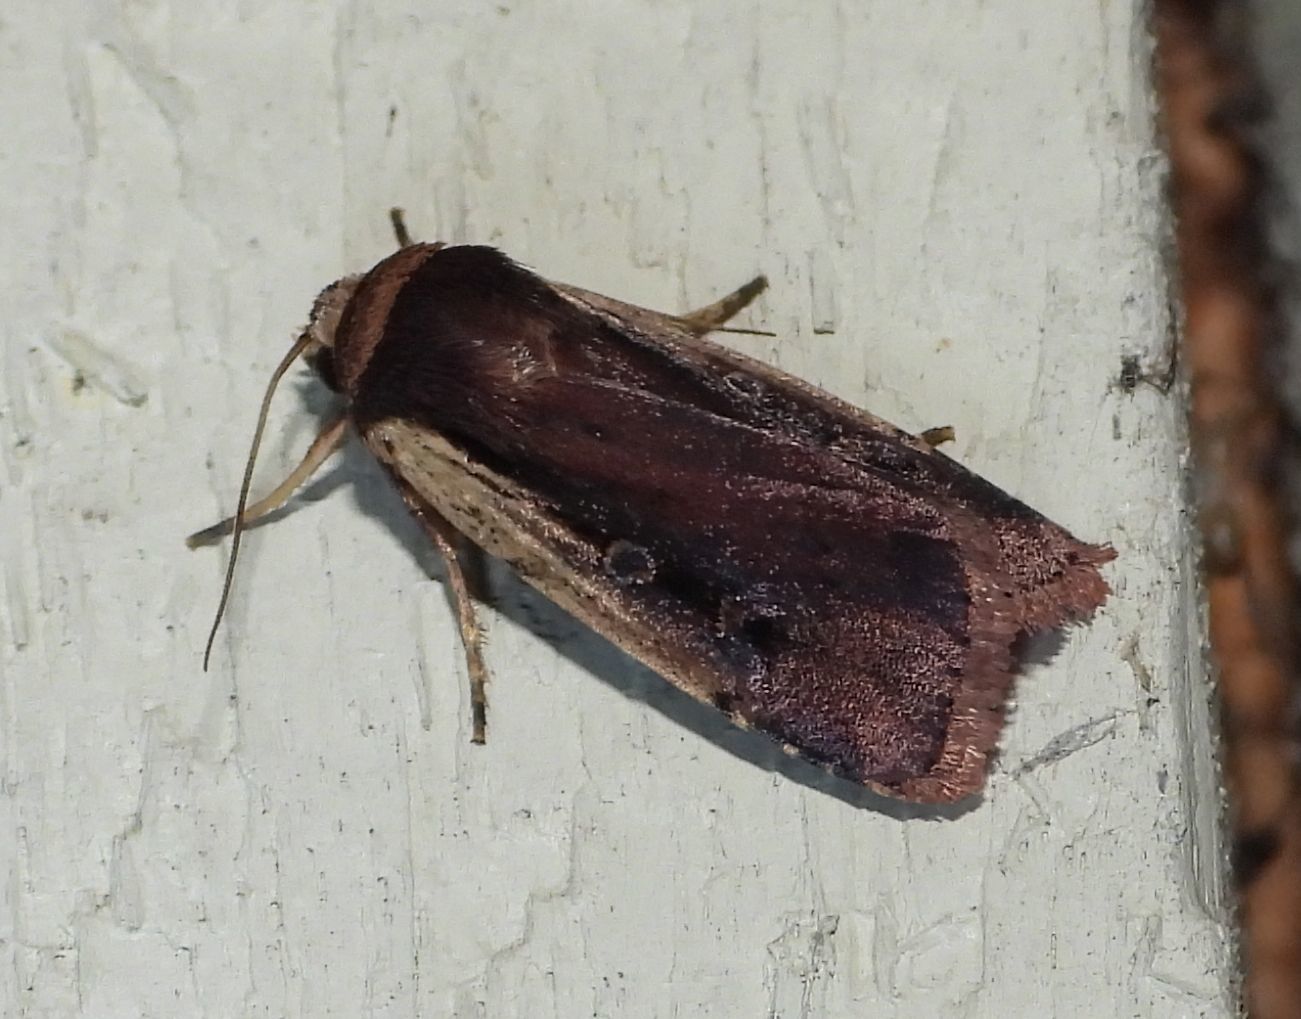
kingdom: Animalia
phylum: Arthropoda
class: Insecta
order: Lepidoptera
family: Noctuidae
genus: Ochropleura
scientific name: Ochropleura implecta
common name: Flame-shouldered dart
